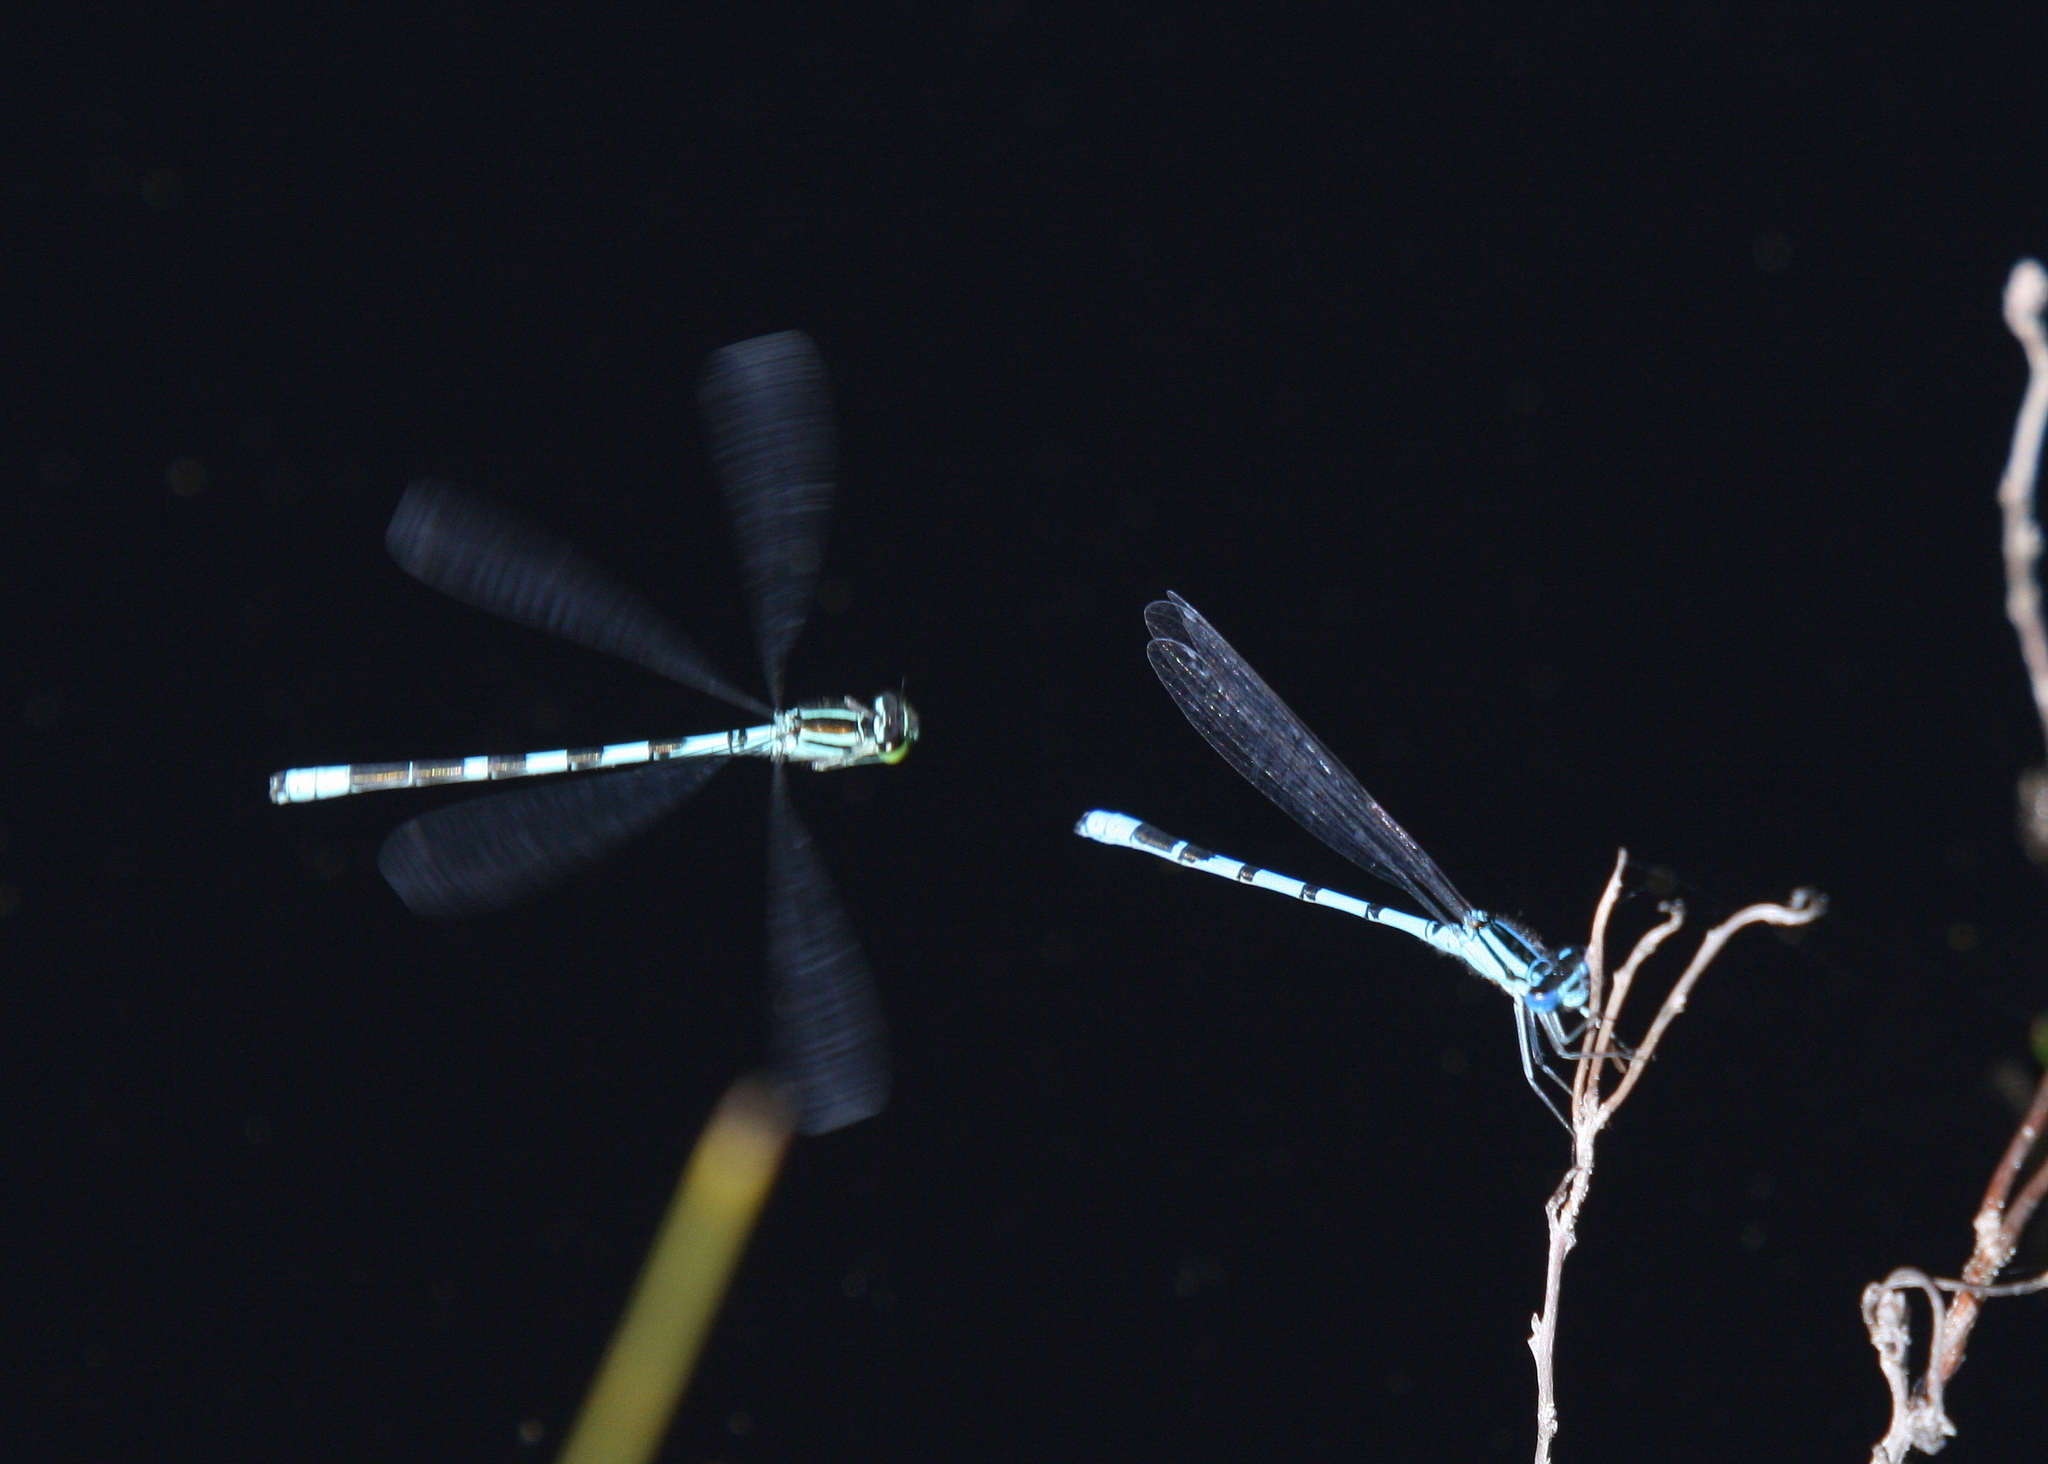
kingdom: Animalia
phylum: Arthropoda
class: Insecta
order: Odonata
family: Coenagrionidae
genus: Enallagma
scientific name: Enallagma cyathigerum
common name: Common blue damselfly
